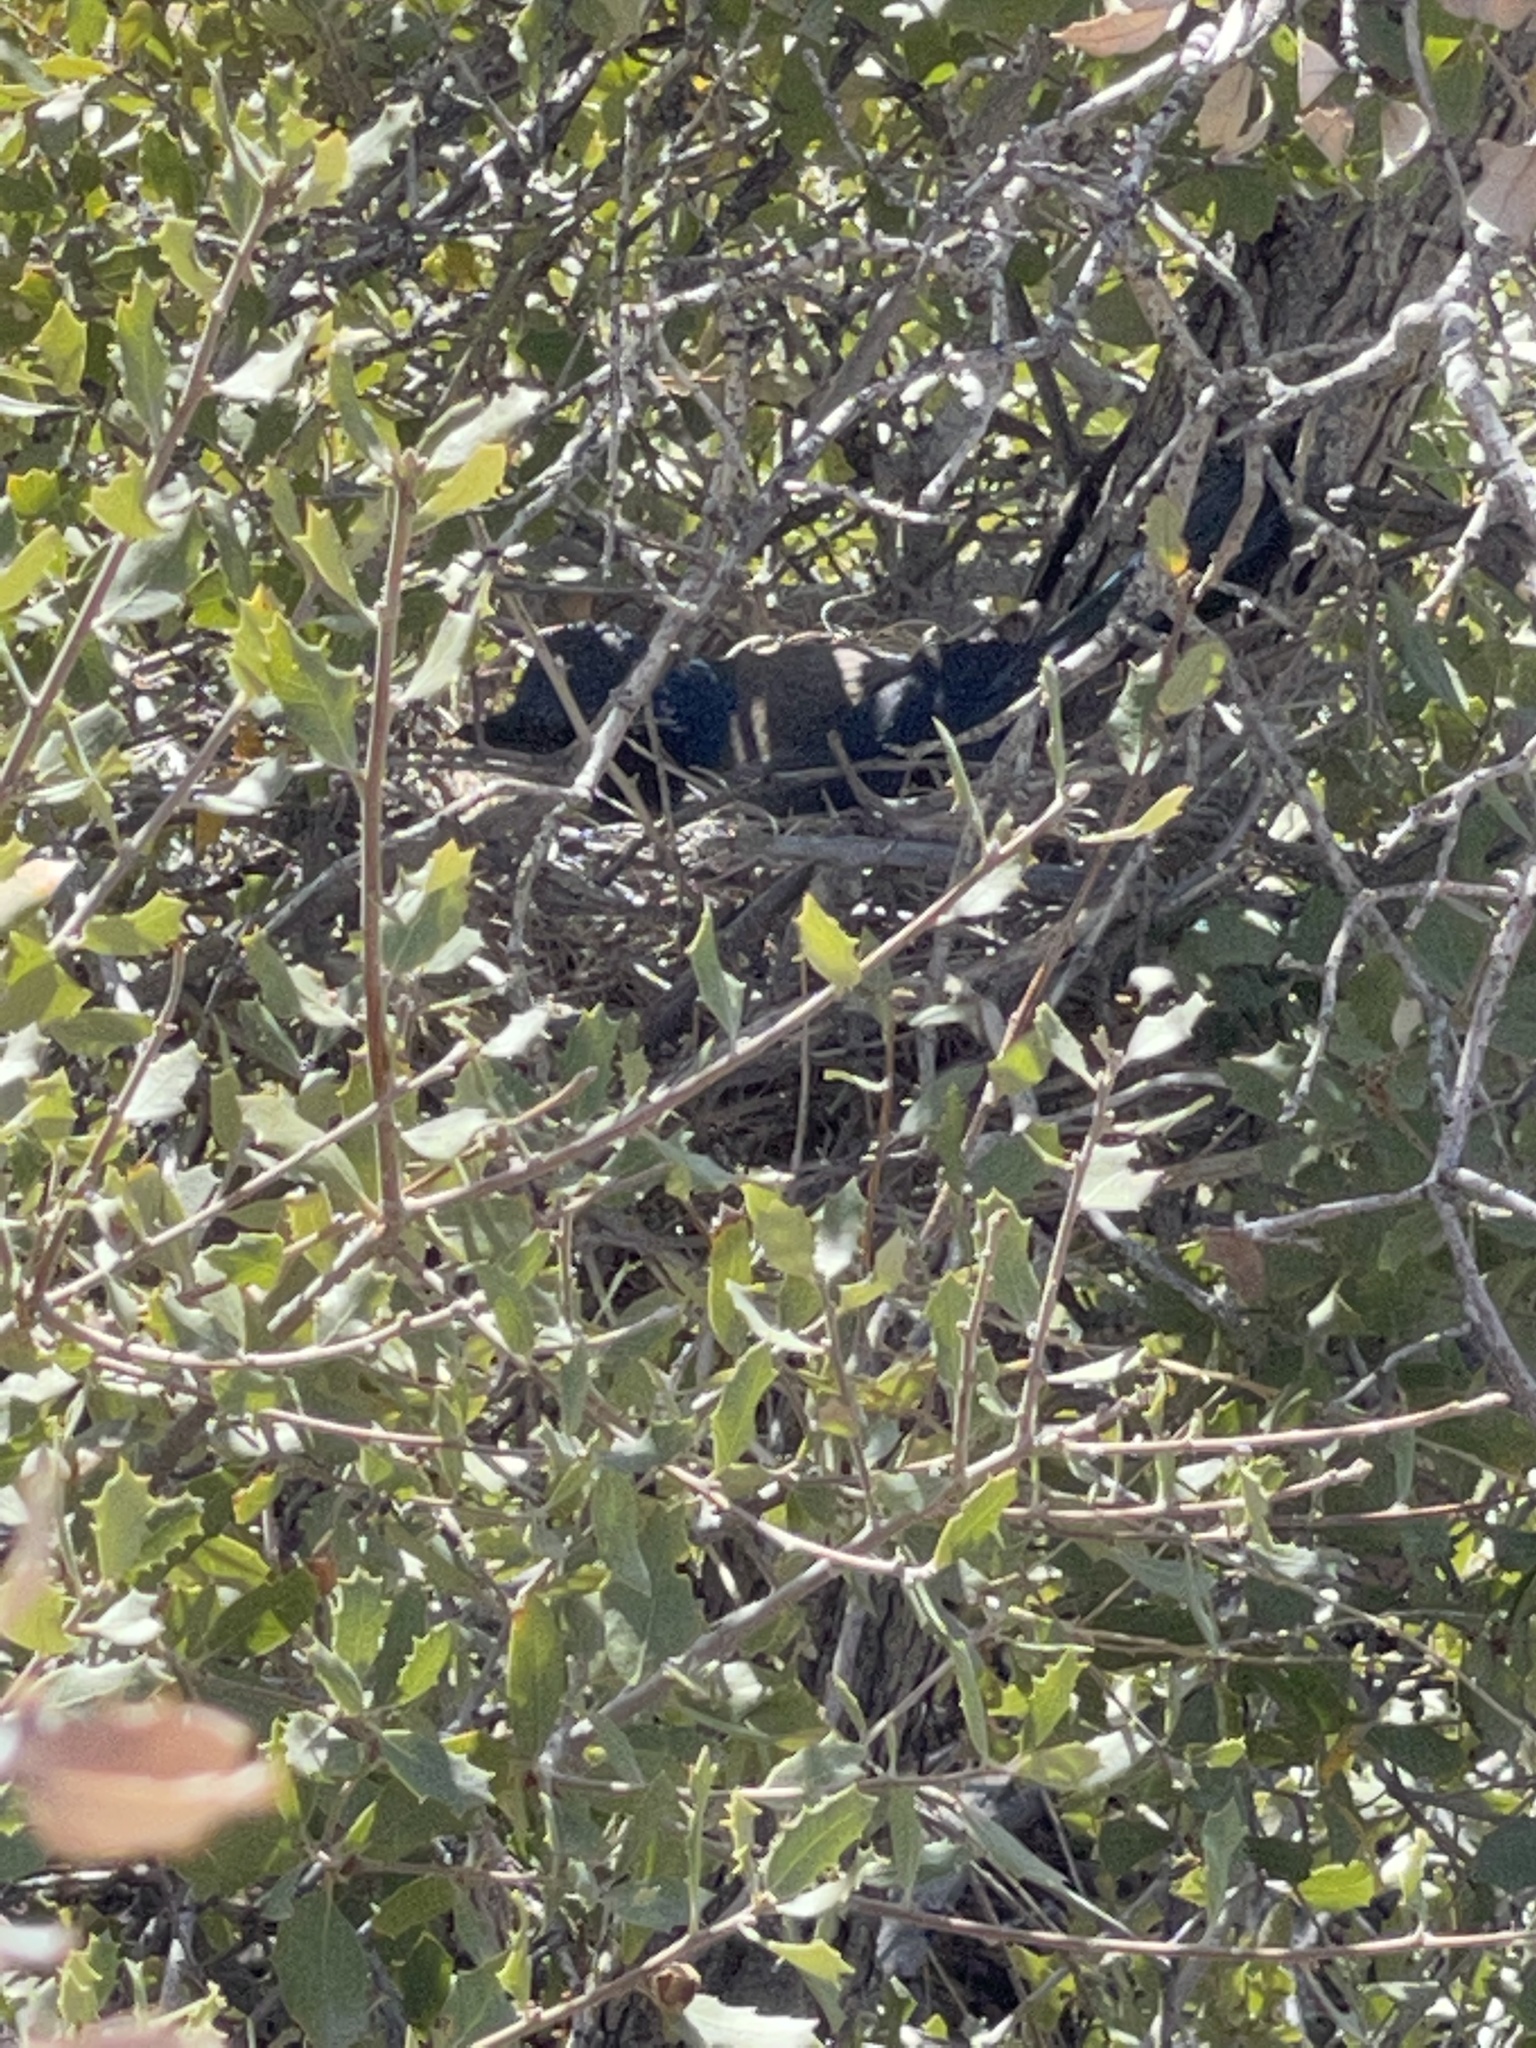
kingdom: Animalia
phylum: Chordata
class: Aves
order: Passeriformes
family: Corvidae
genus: Aphelocoma
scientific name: Aphelocoma californica
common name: California scrub-jay
